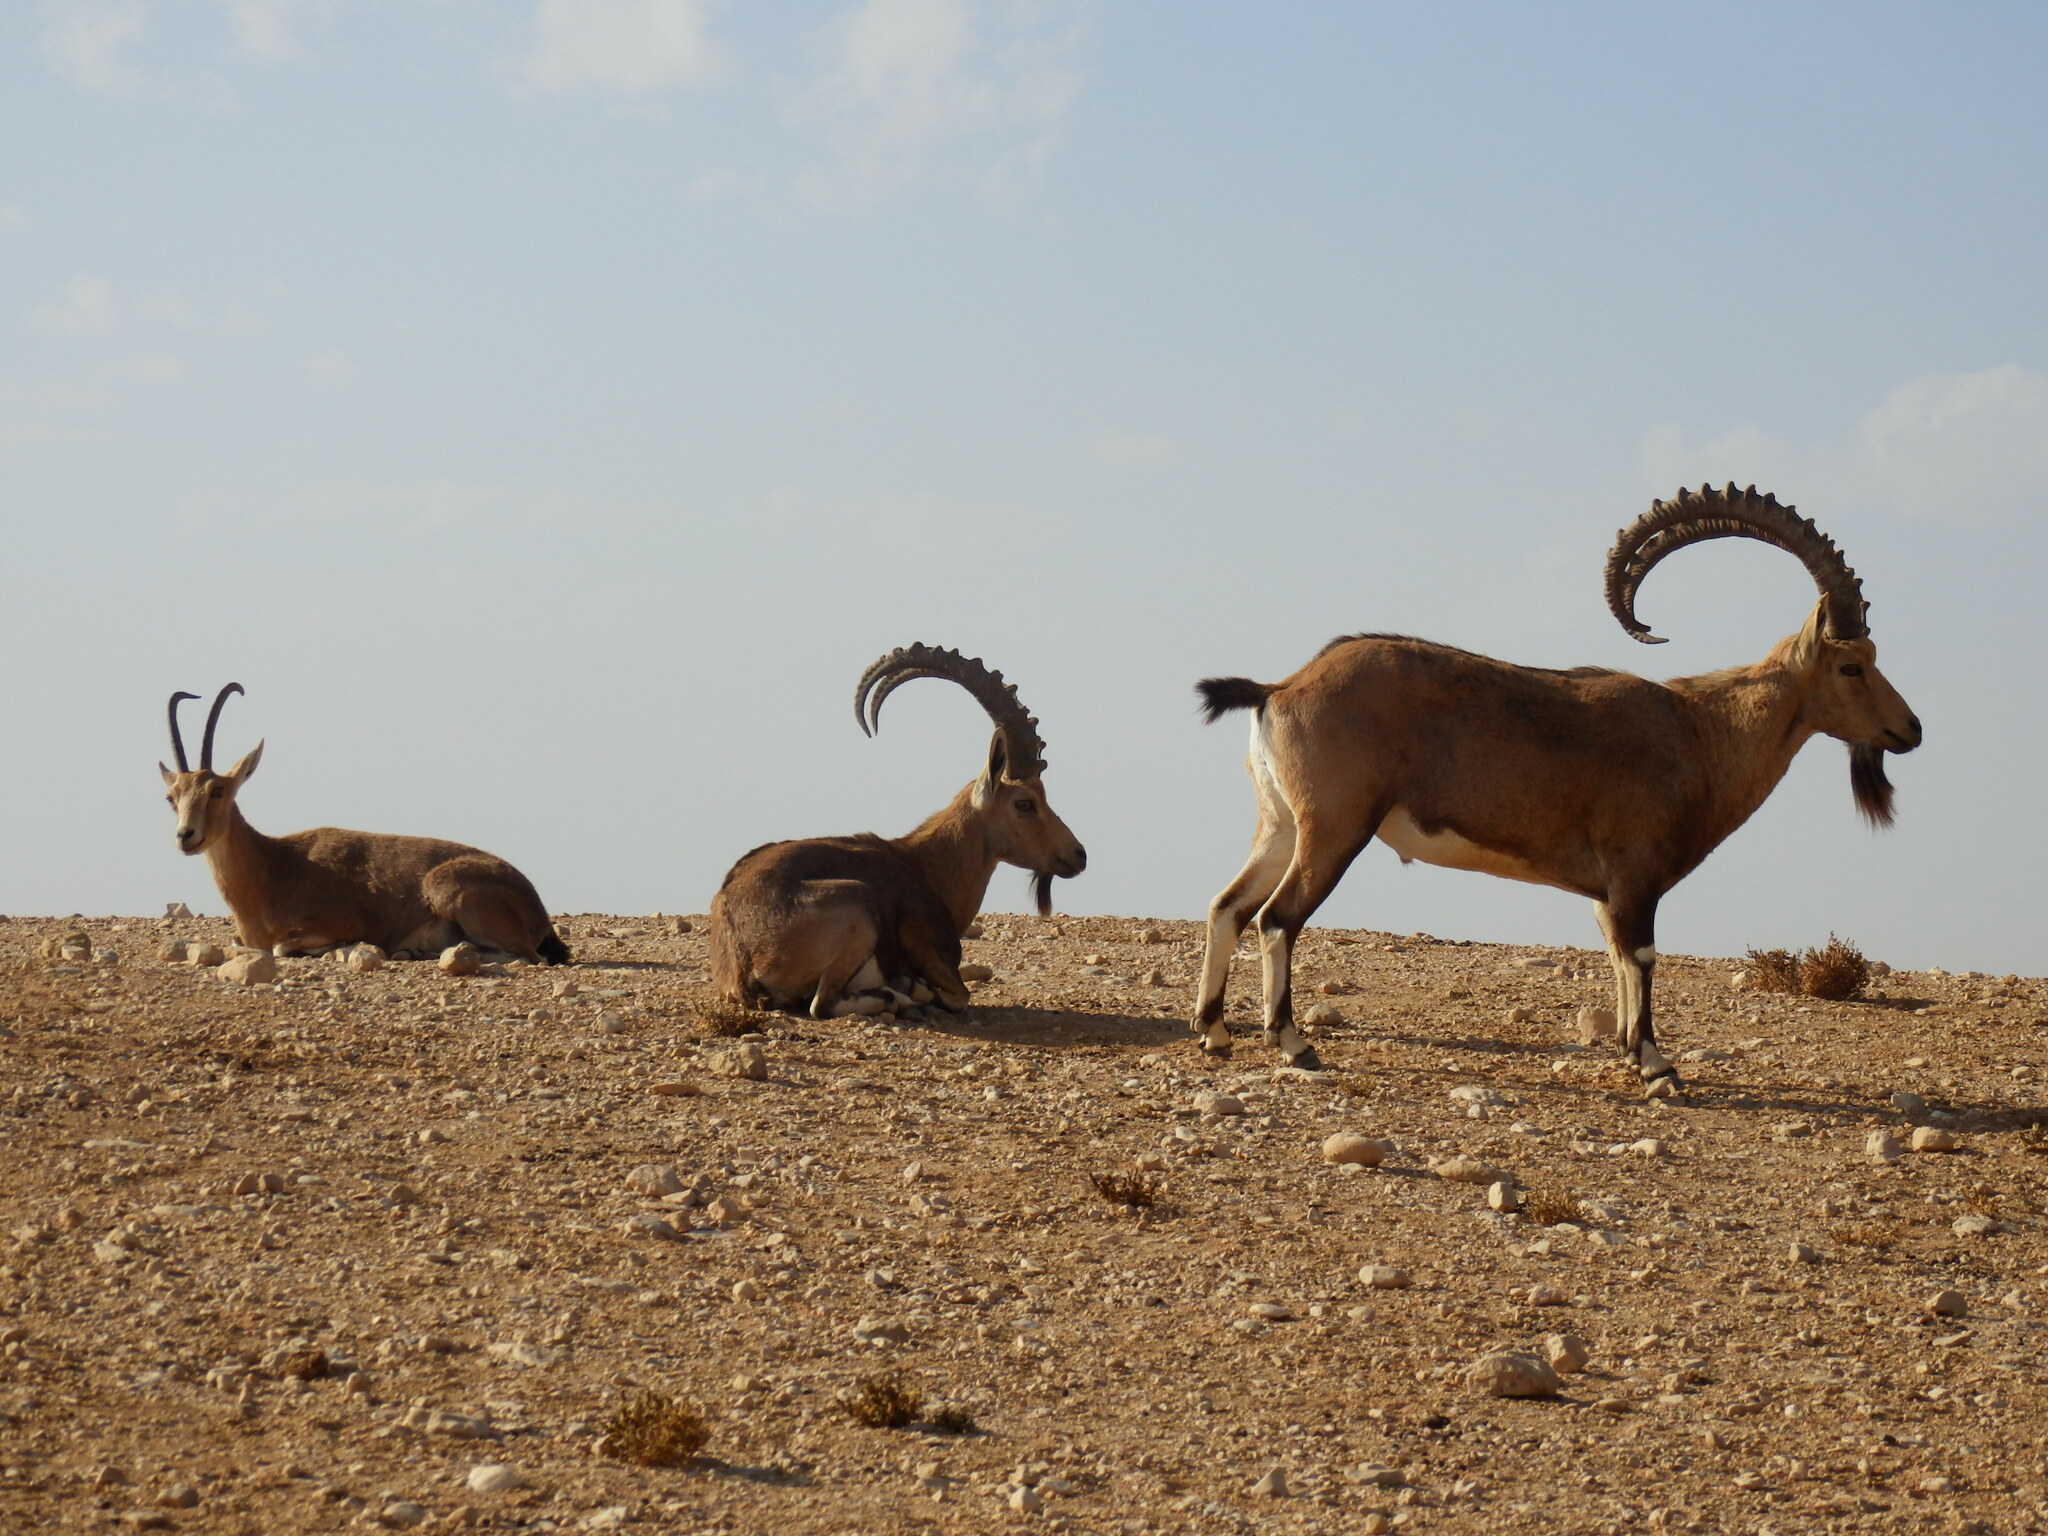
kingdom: Animalia
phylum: Chordata
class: Mammalia
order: Artiodactyla
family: Bovidae
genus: Capra
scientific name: Capra nubiana
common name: Nubian ibex
